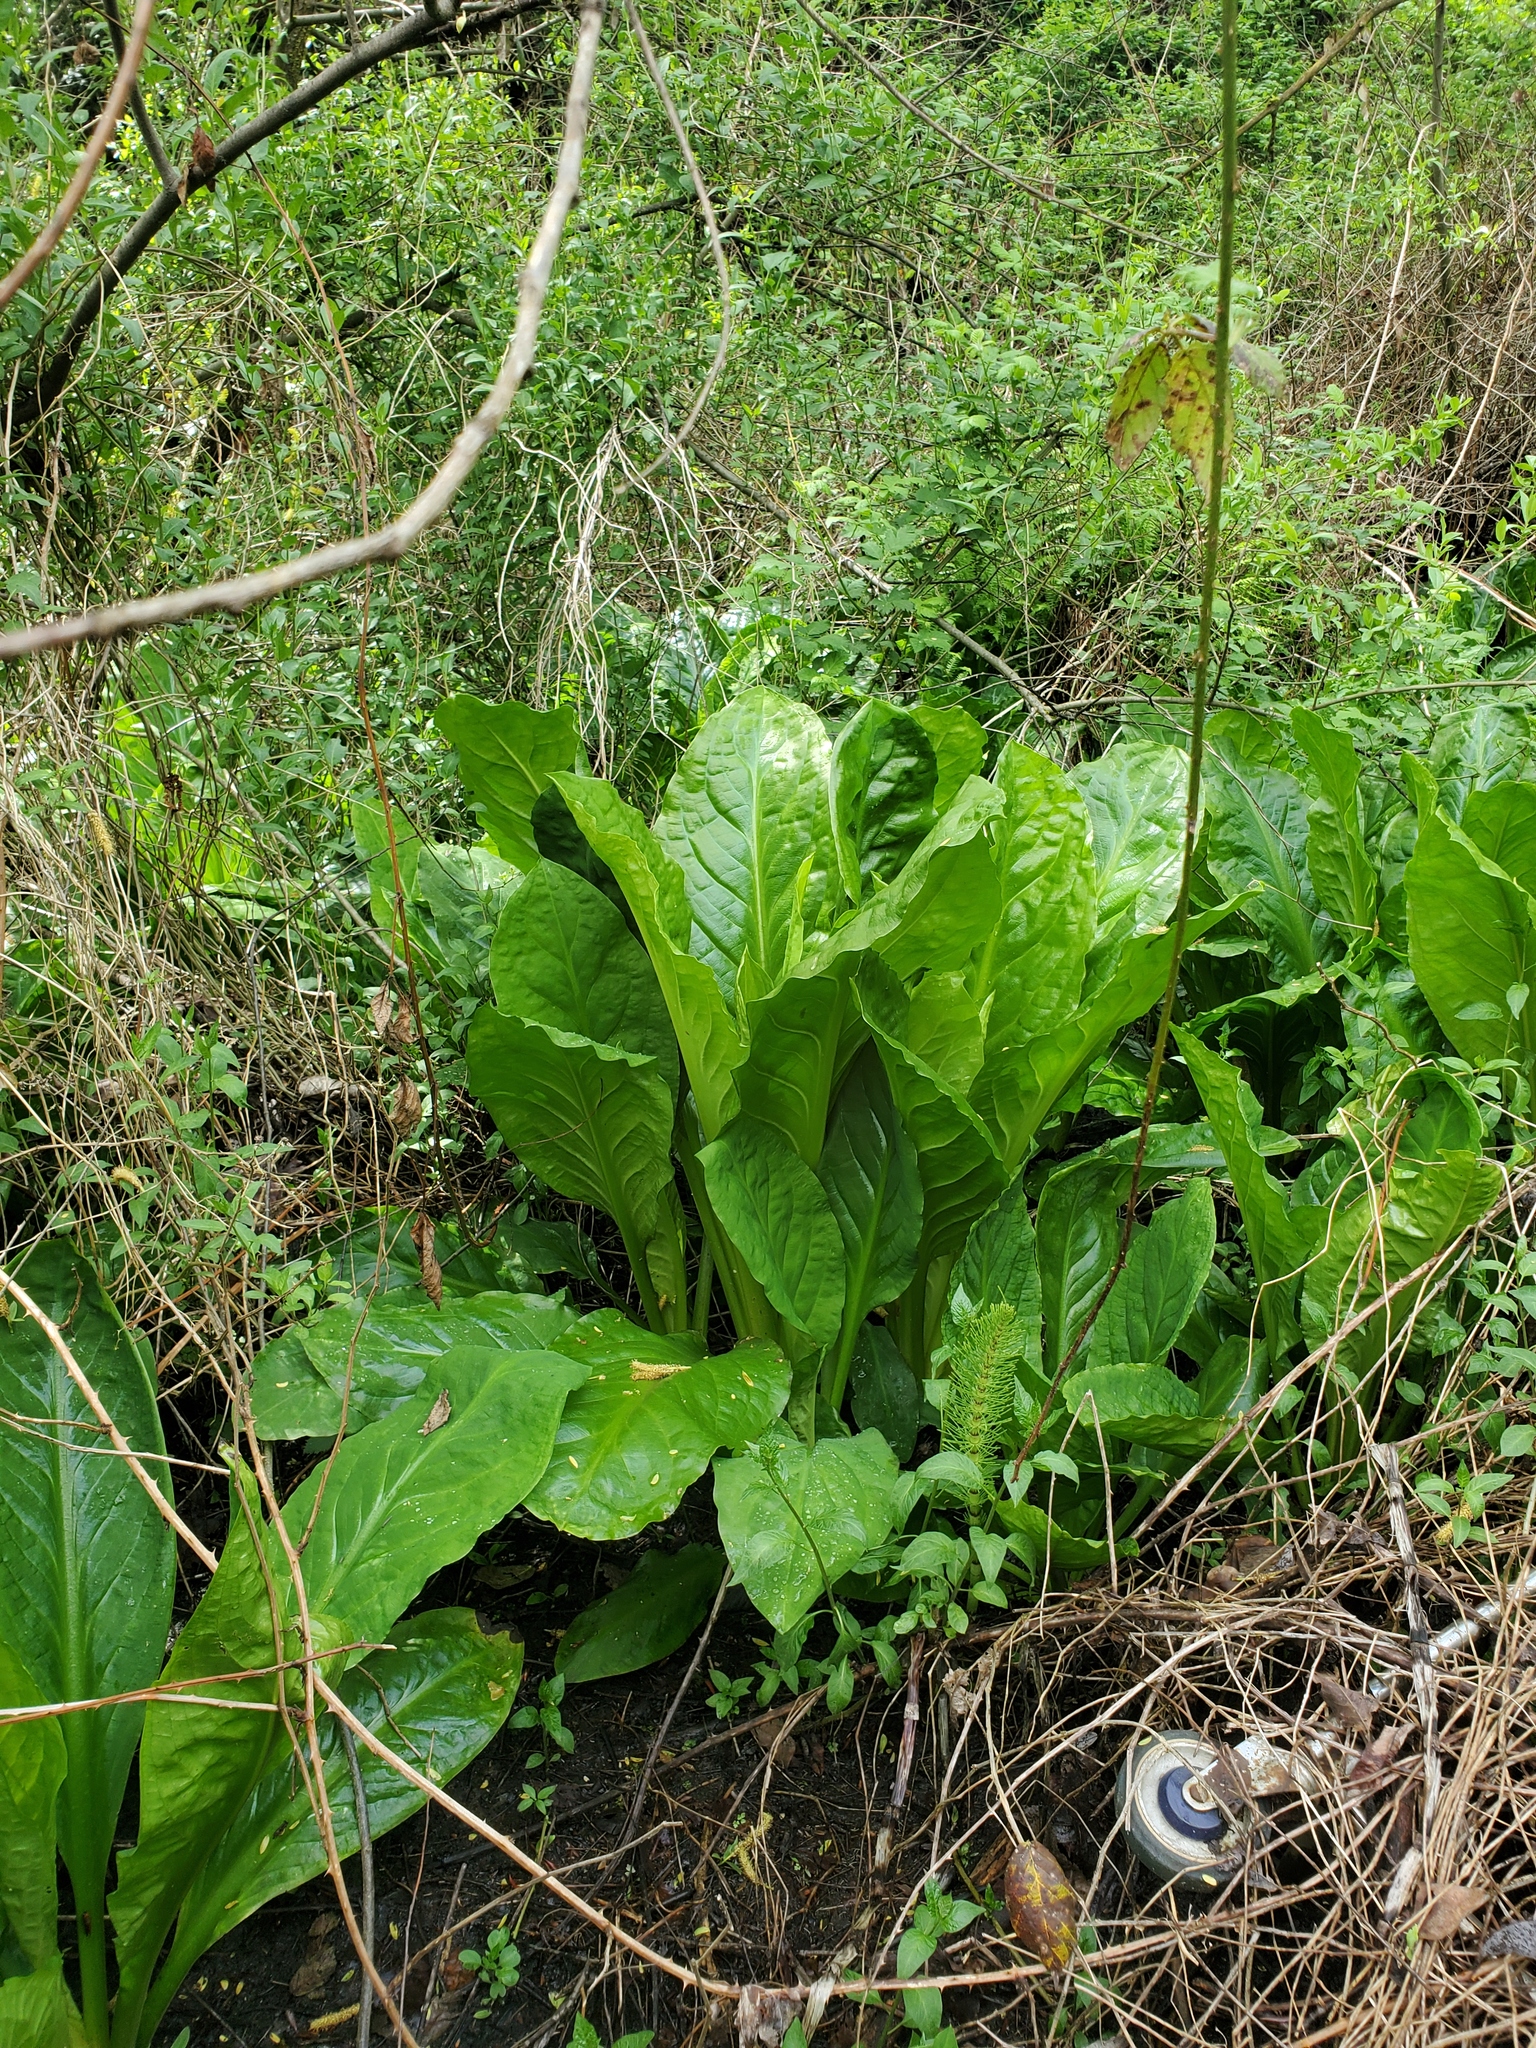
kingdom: Plantae
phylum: Tracheophyta
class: Liliopsida
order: Alismatales
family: Araceae
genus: Lysichiton
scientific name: Lysichiton americanus
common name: American skunk cabbage
